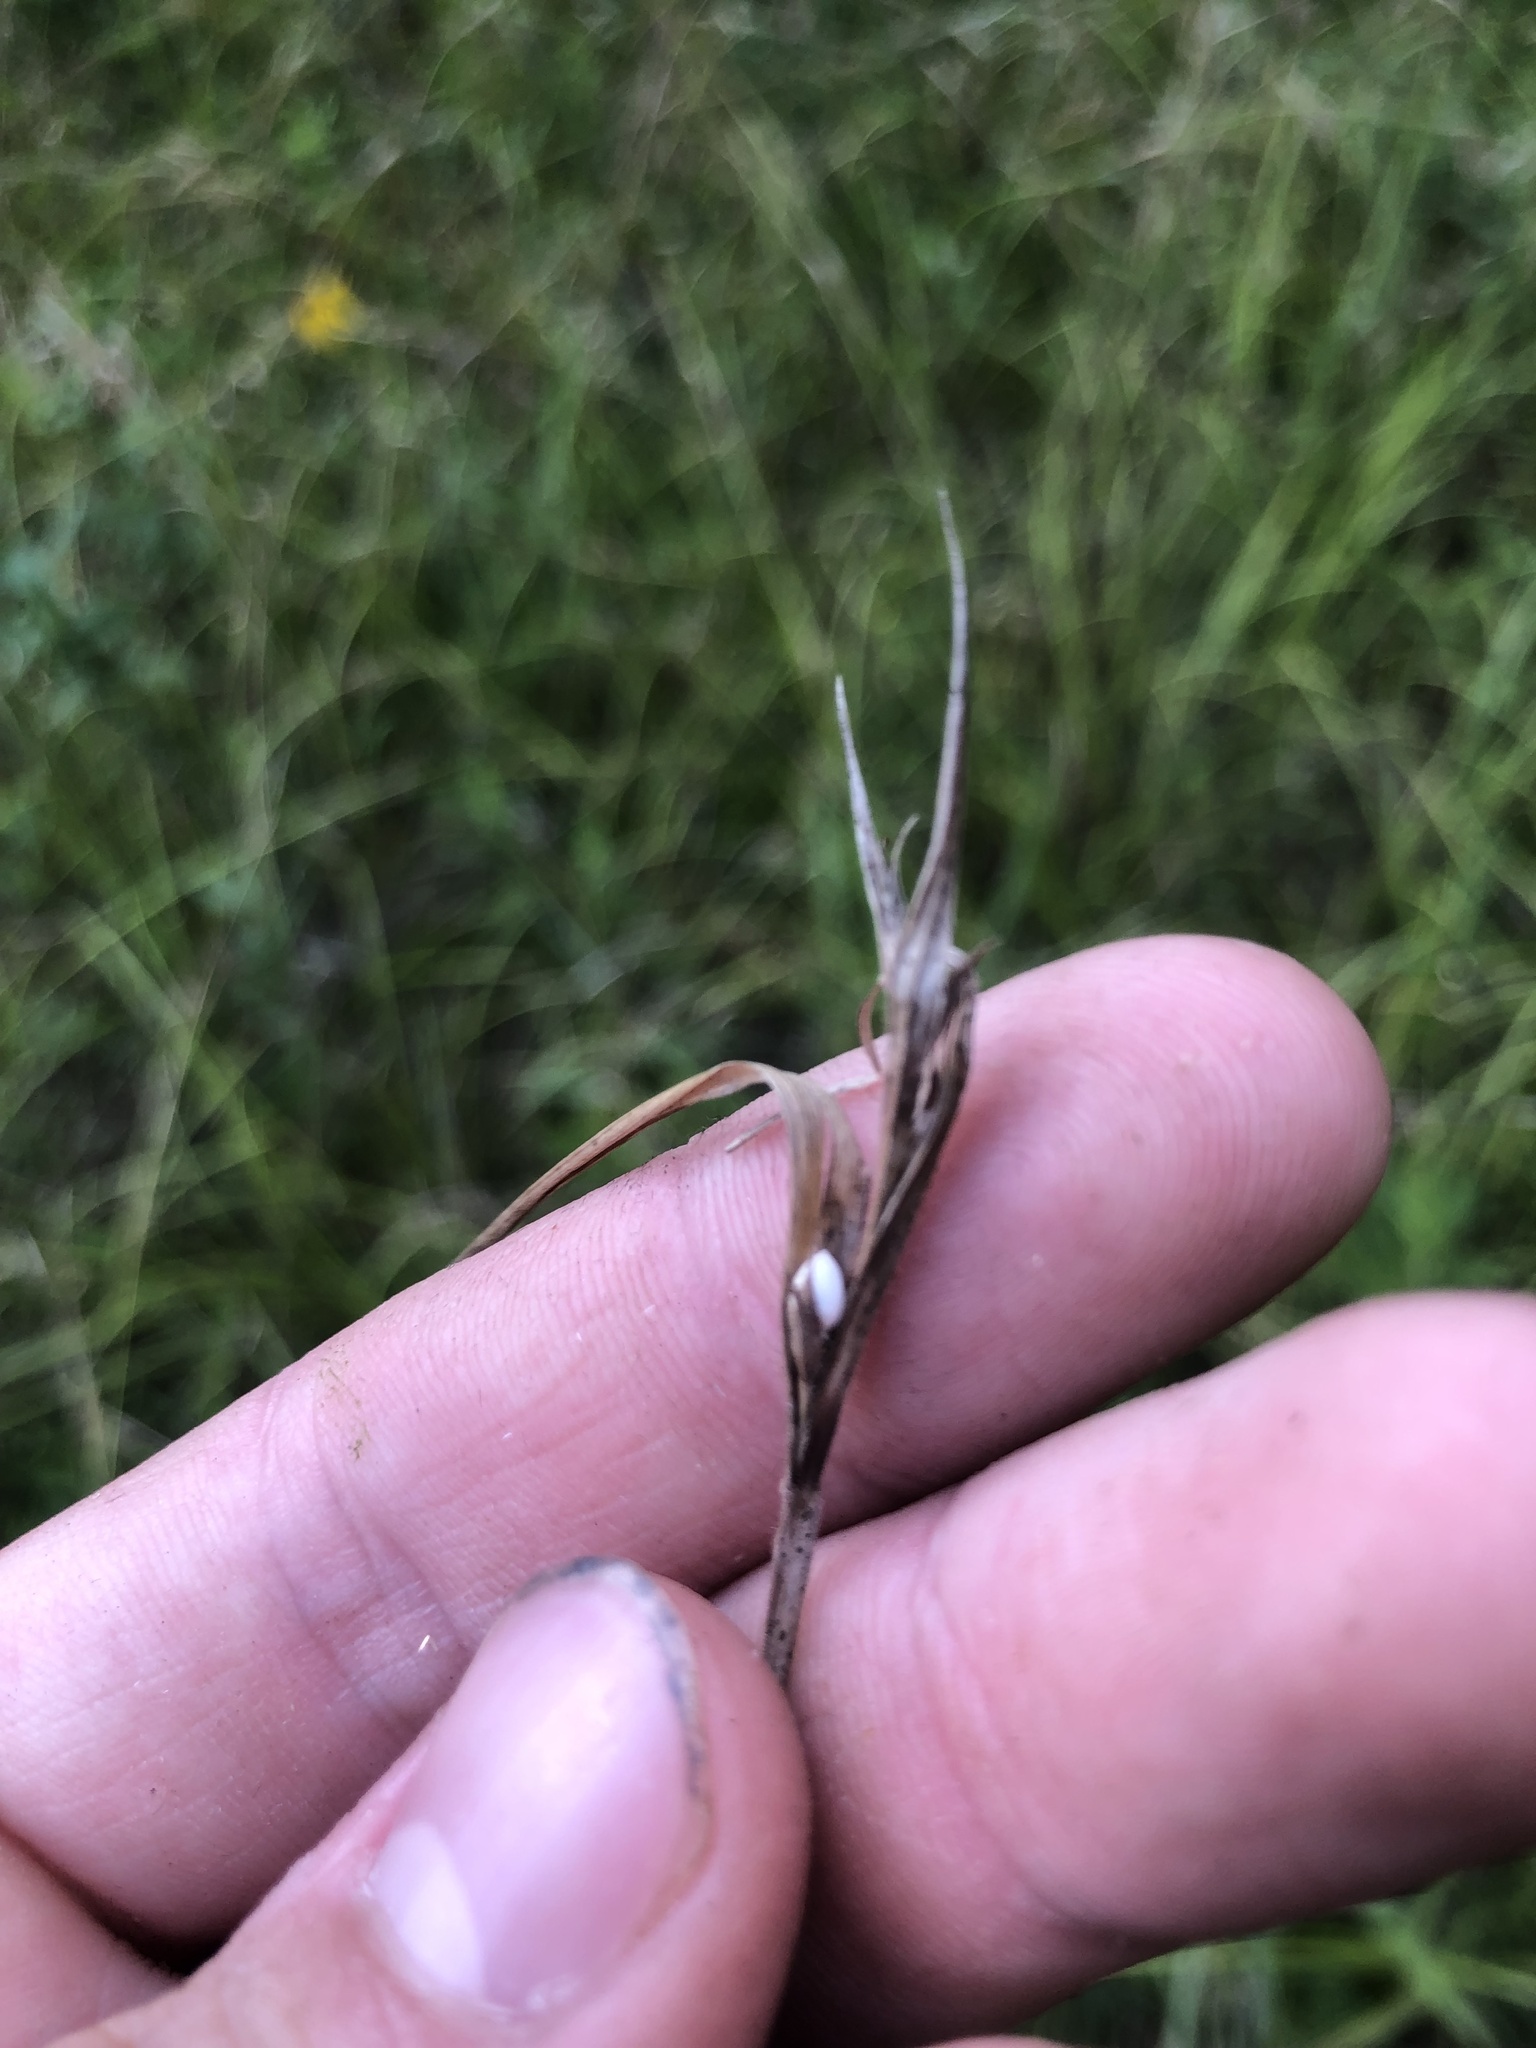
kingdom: Plantae
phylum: Tracheophyta
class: Liliopsida
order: Poales
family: Cyperaceae
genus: Scleria
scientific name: Scleria oligantha
